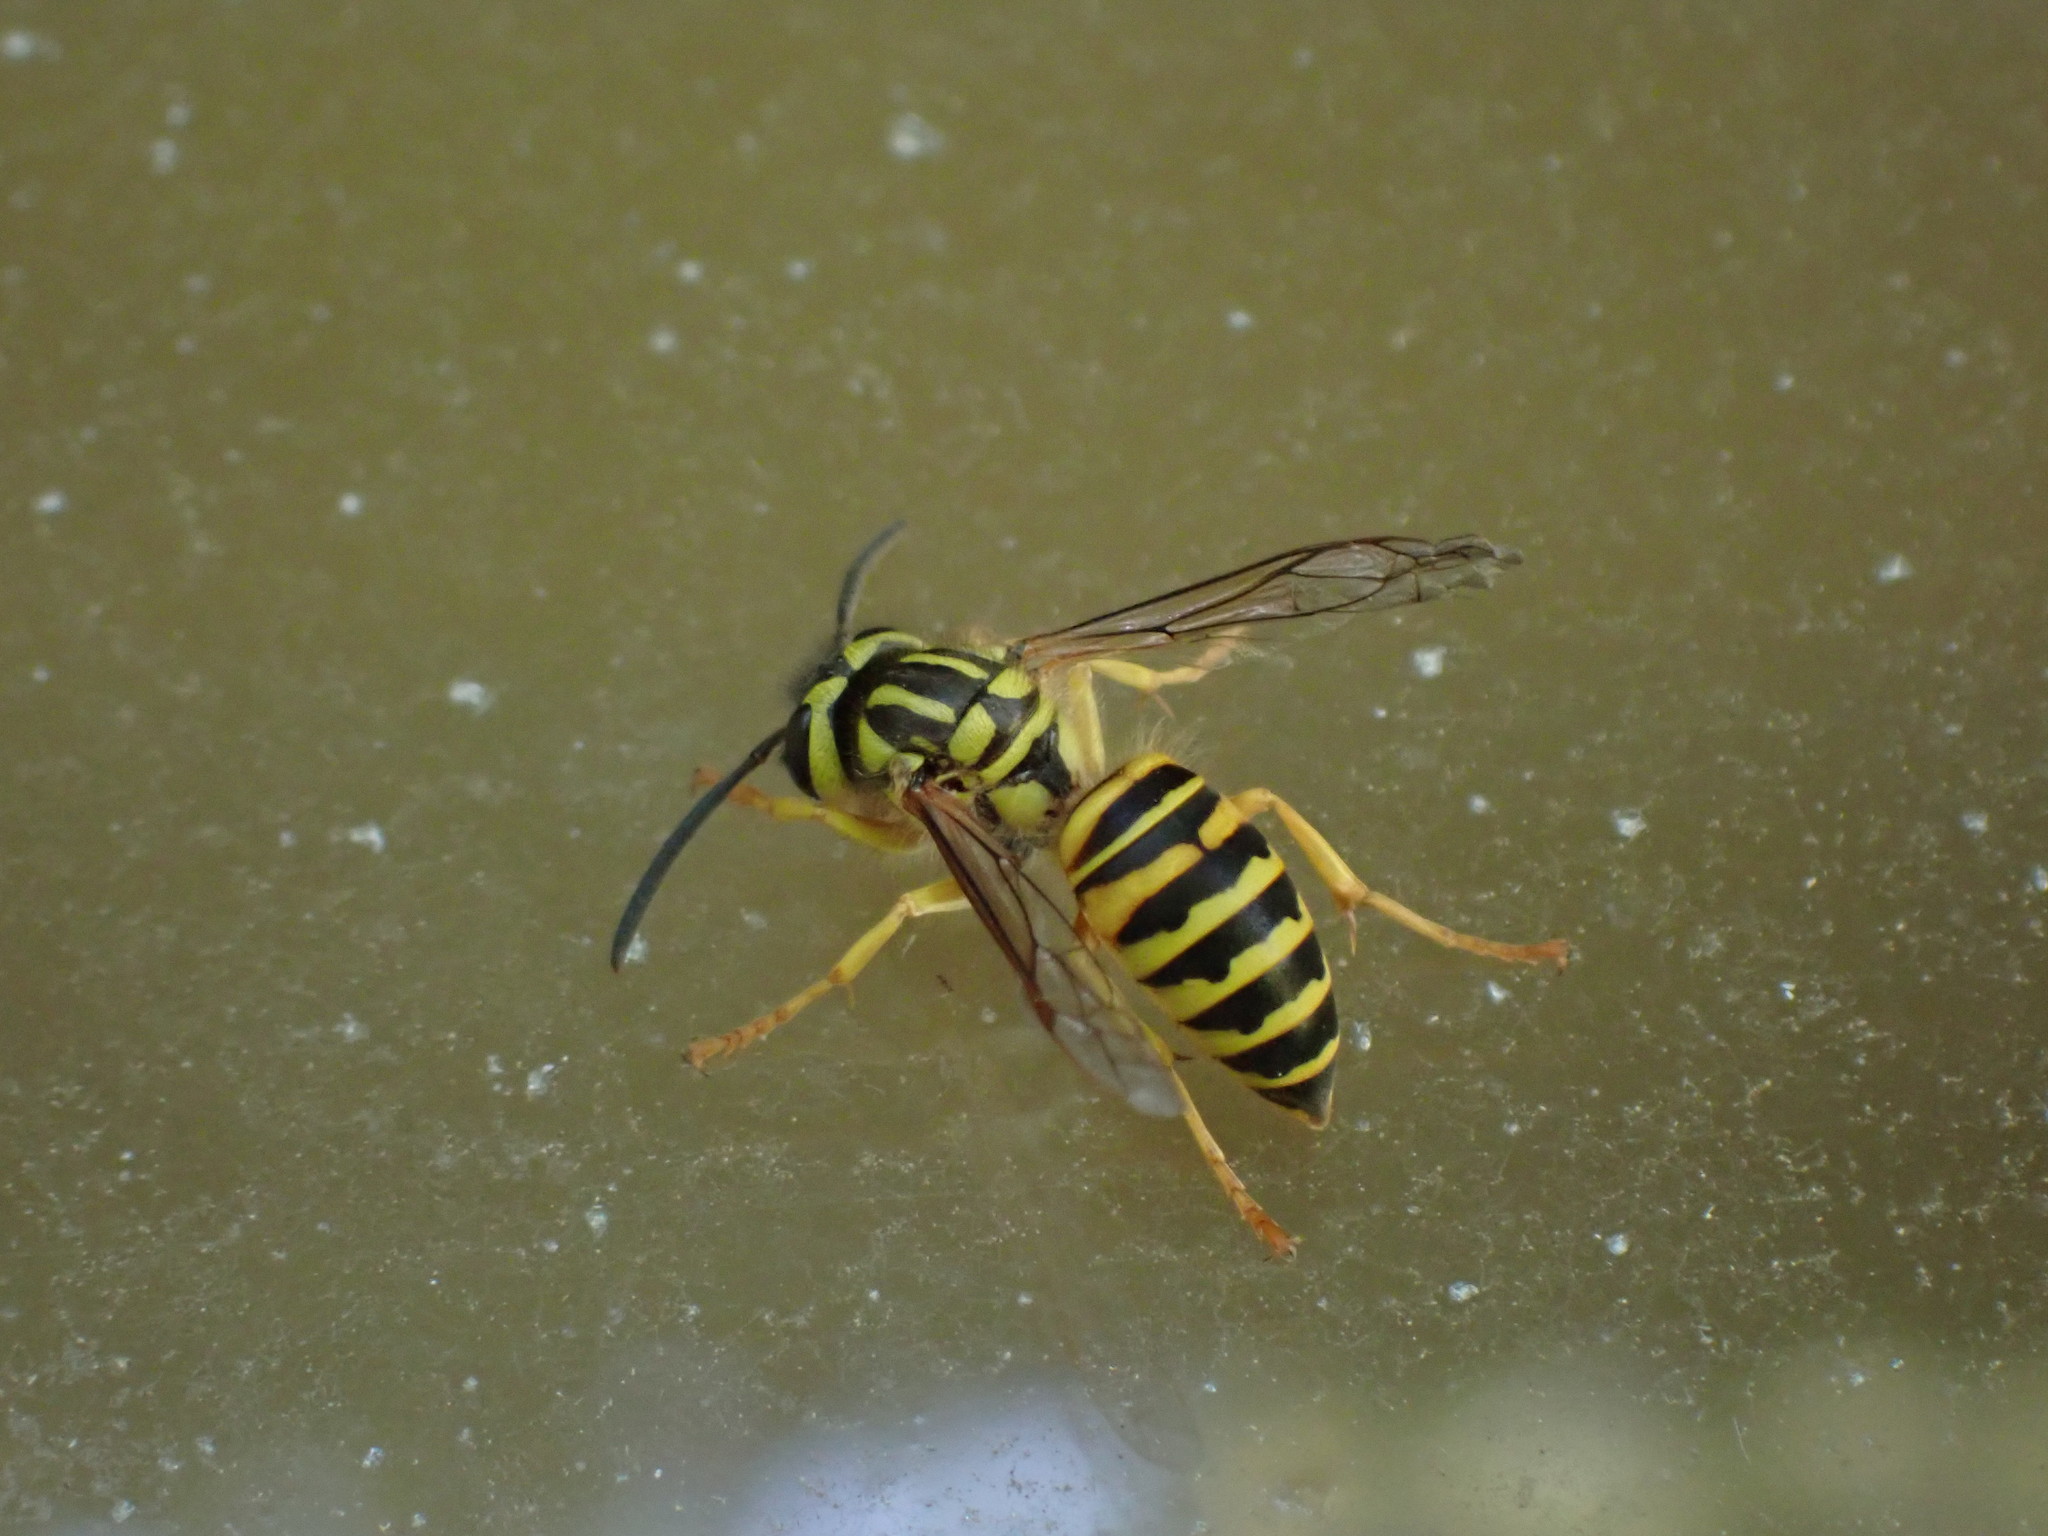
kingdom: Animalia
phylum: Arthropoda
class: Insecta
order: Hymenoptera
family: Vespidae
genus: Vespula
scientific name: Vespula squamosa
